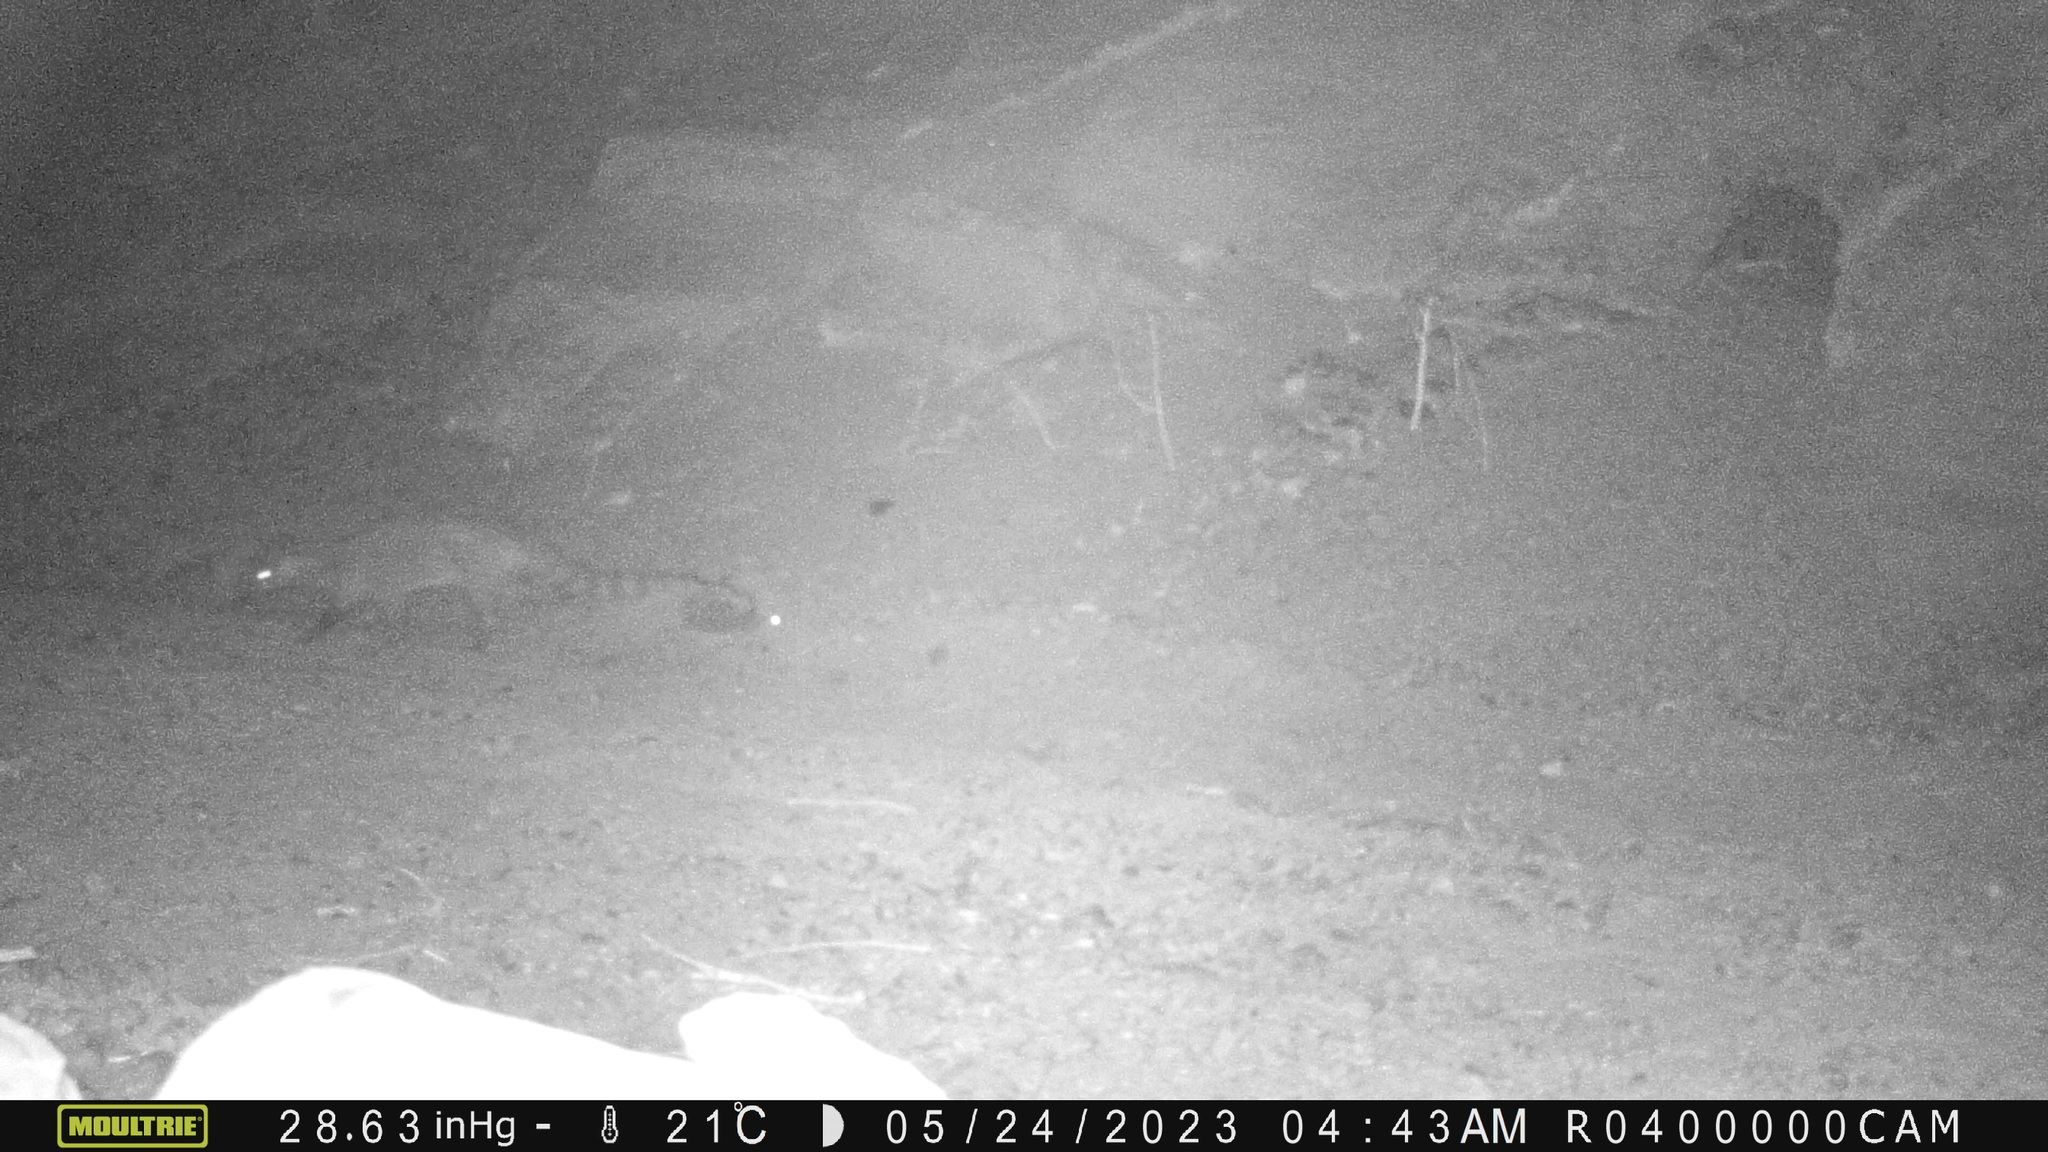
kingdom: Animalia
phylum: Chordata
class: Mammalia
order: Carnivora
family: Viverridae
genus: Viverricula
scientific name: Viverricula indica
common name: Small indian civet
